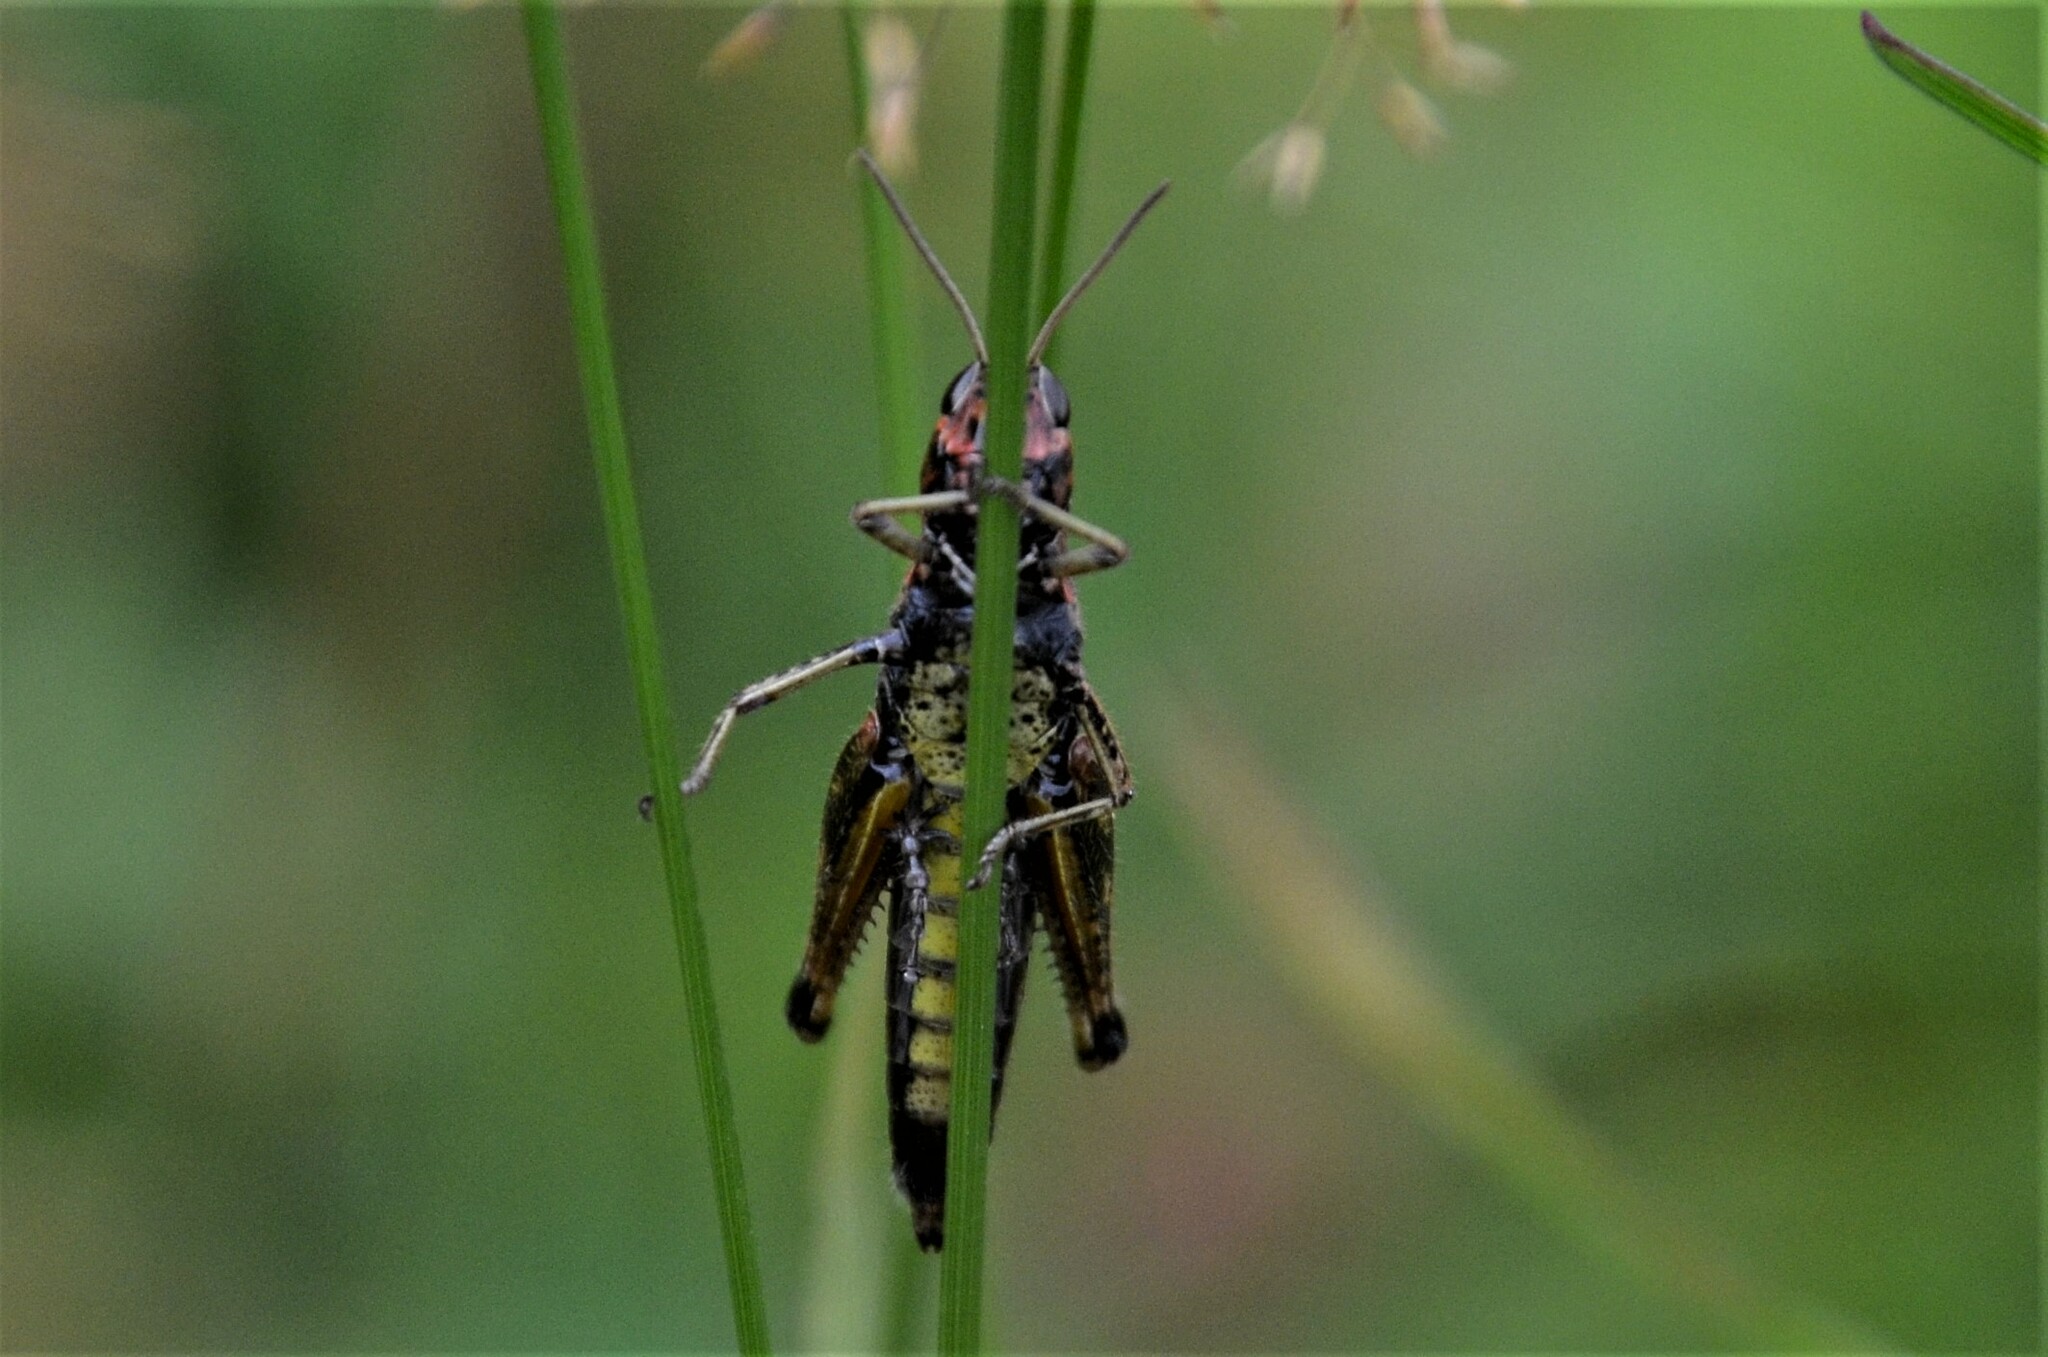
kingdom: Animalia
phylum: Arthropoda
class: Insecta
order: Orthoptera
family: Acrididae
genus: Omocestus
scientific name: Omocestus viridulus
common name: Common green grasshopper
